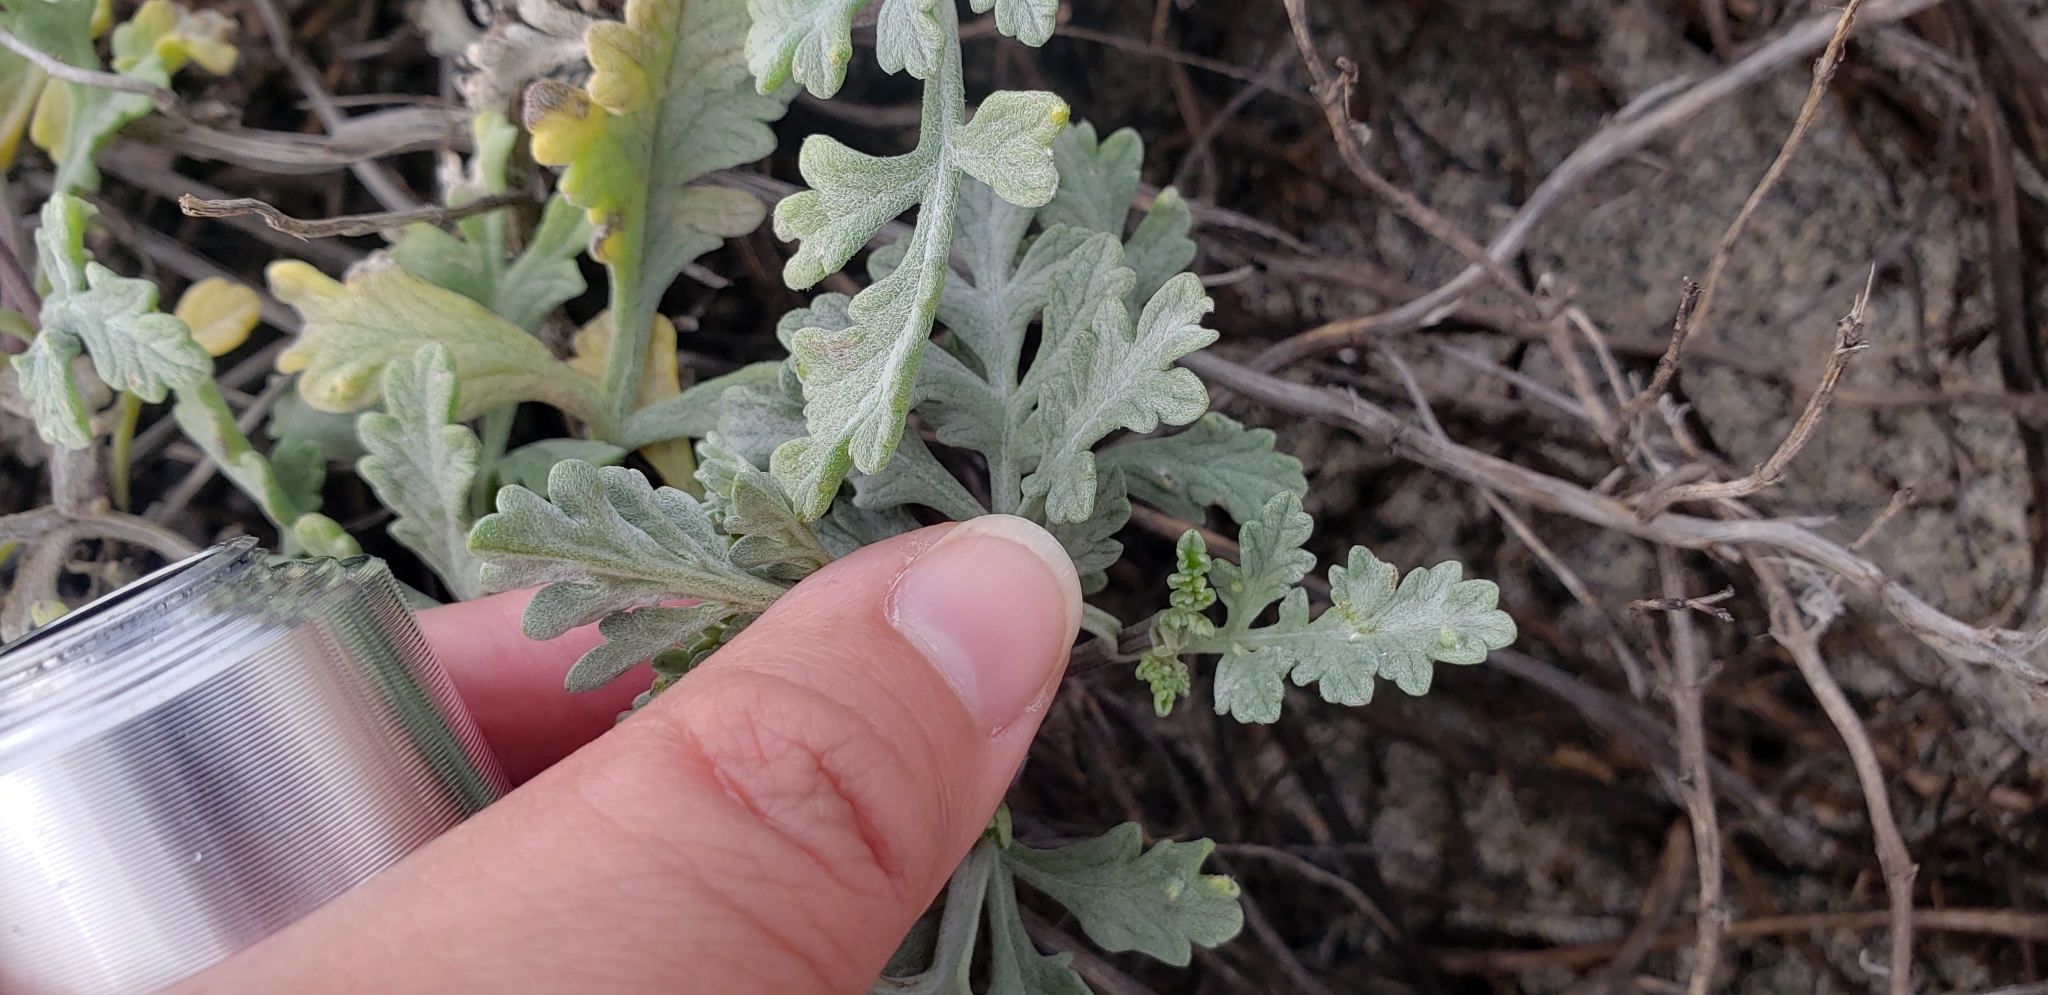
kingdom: Plantae
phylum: Tracheophyta
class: Magnoliopsida
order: Asterales
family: Asteraceae
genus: Ambrosia
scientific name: Ambrosia chamissonis
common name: Beachbur
